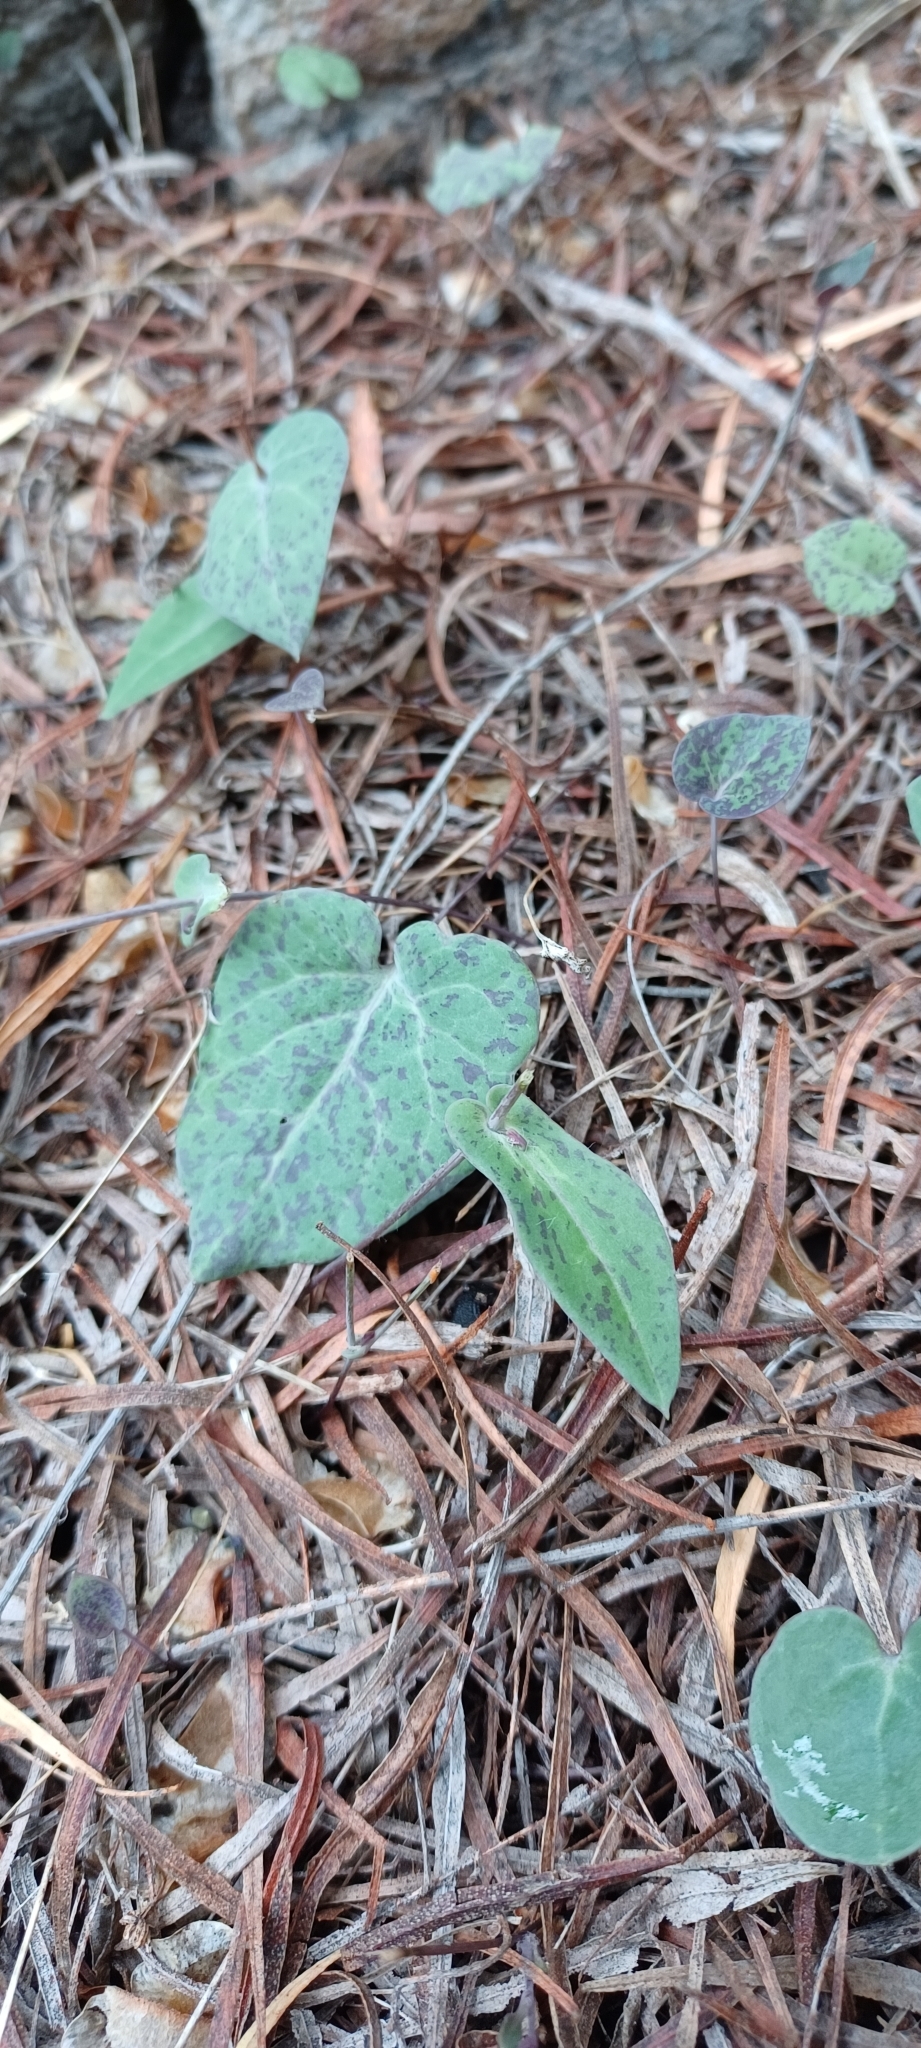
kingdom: Plantae
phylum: Tracheophyta
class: Magnoliopsida
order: Asterales
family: Asteraceae
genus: Othonna
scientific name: Othonna perfoliata
